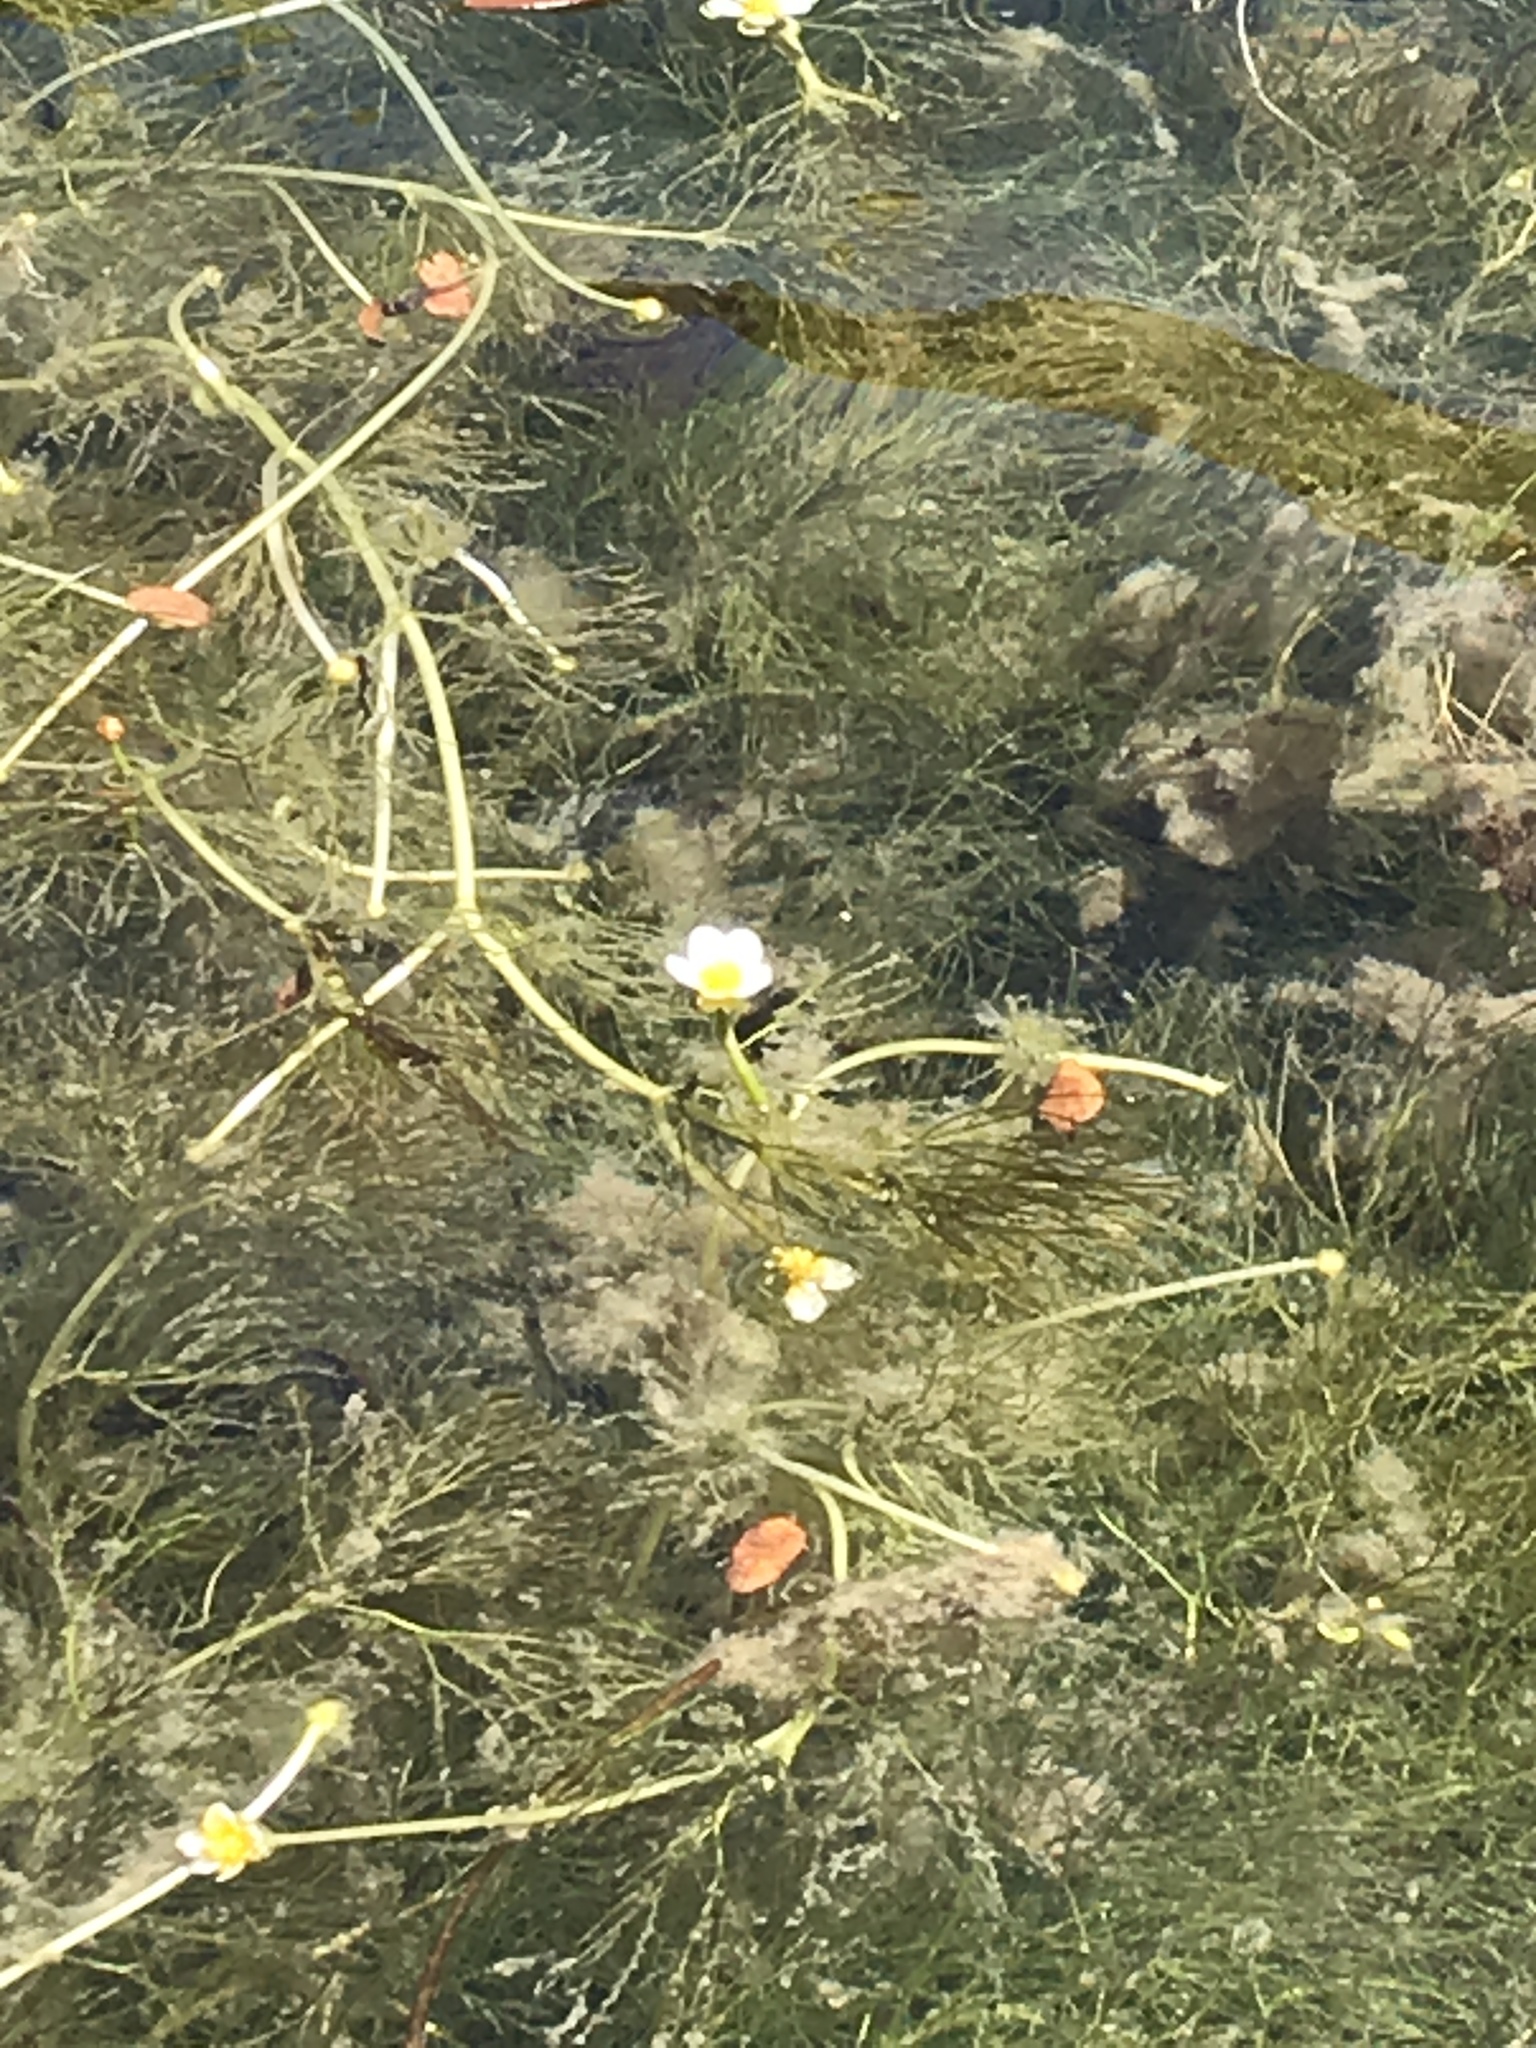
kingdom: Plantae
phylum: Tracheophyta
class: Magnoliopsida
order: Ranunculales
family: Ranunculaceae
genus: Ranunculus
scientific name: Ranunculus trichophyllus
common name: Thread-leaved water-crowfoot
